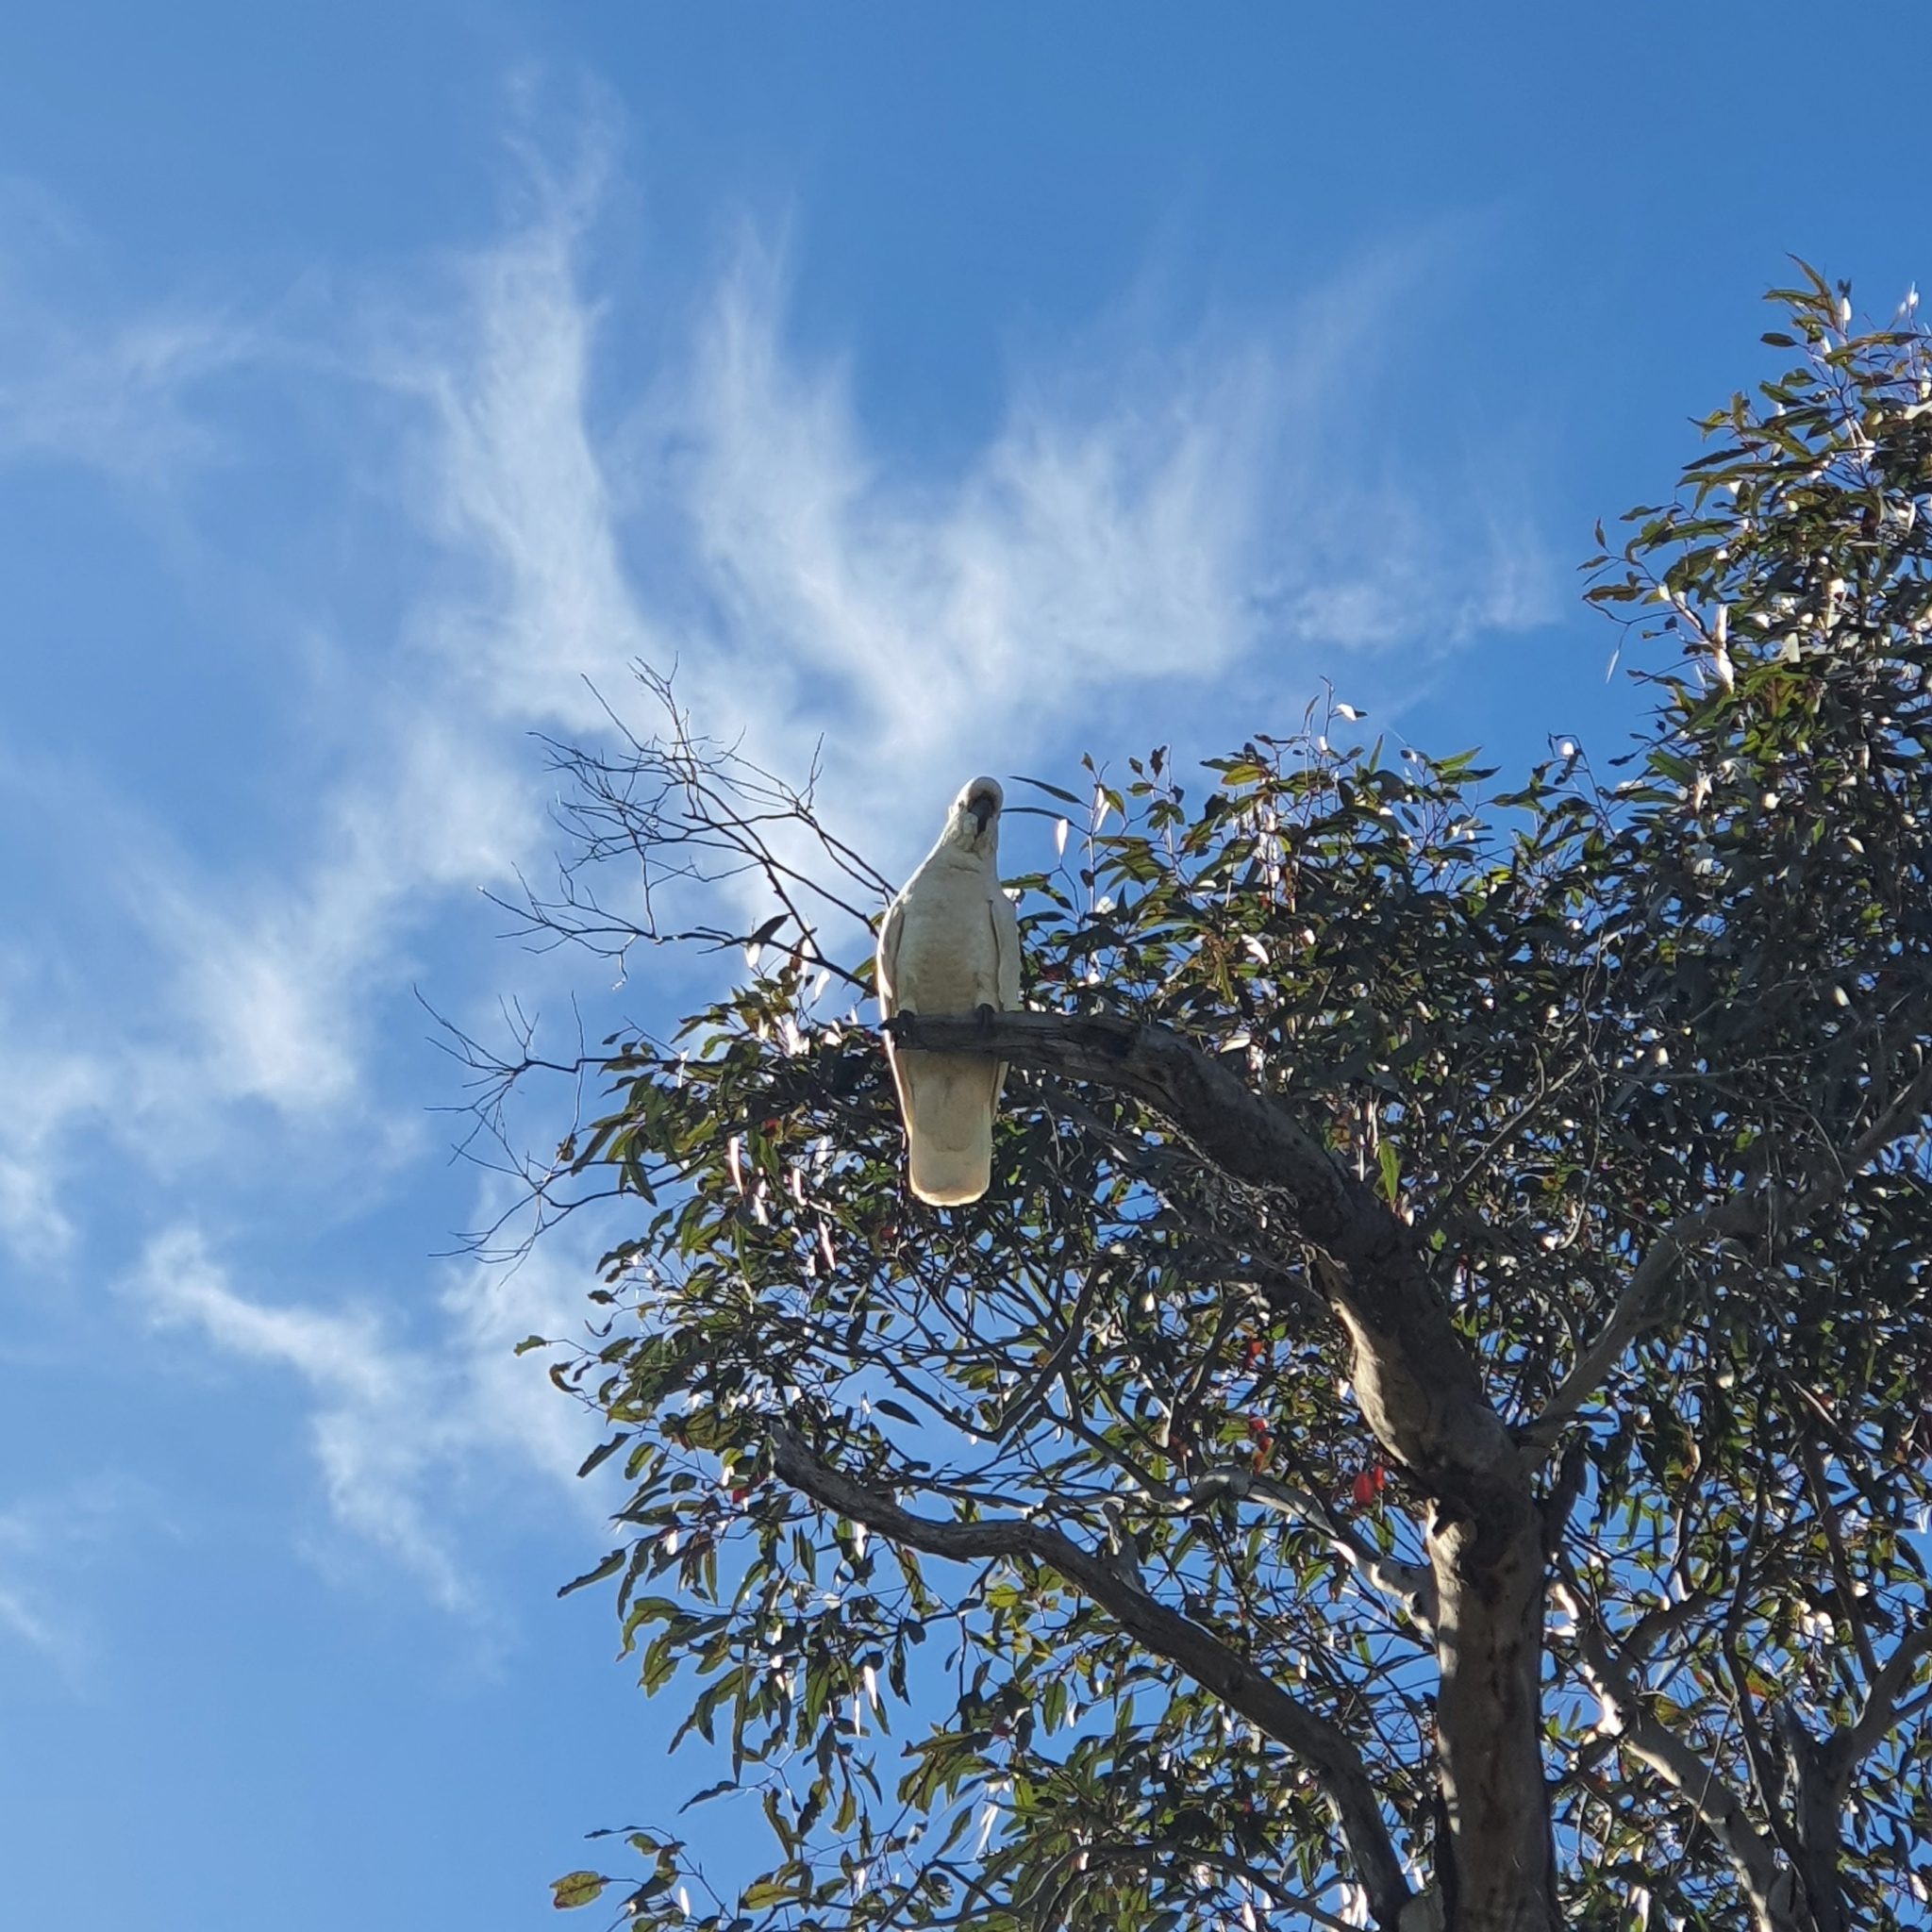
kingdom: Animalia
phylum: Chordata
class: Aves
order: Psittaciformes
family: Psittacidae
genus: Cacatua
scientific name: Cacatua galerita
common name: Sulphur-crested cockatoo
